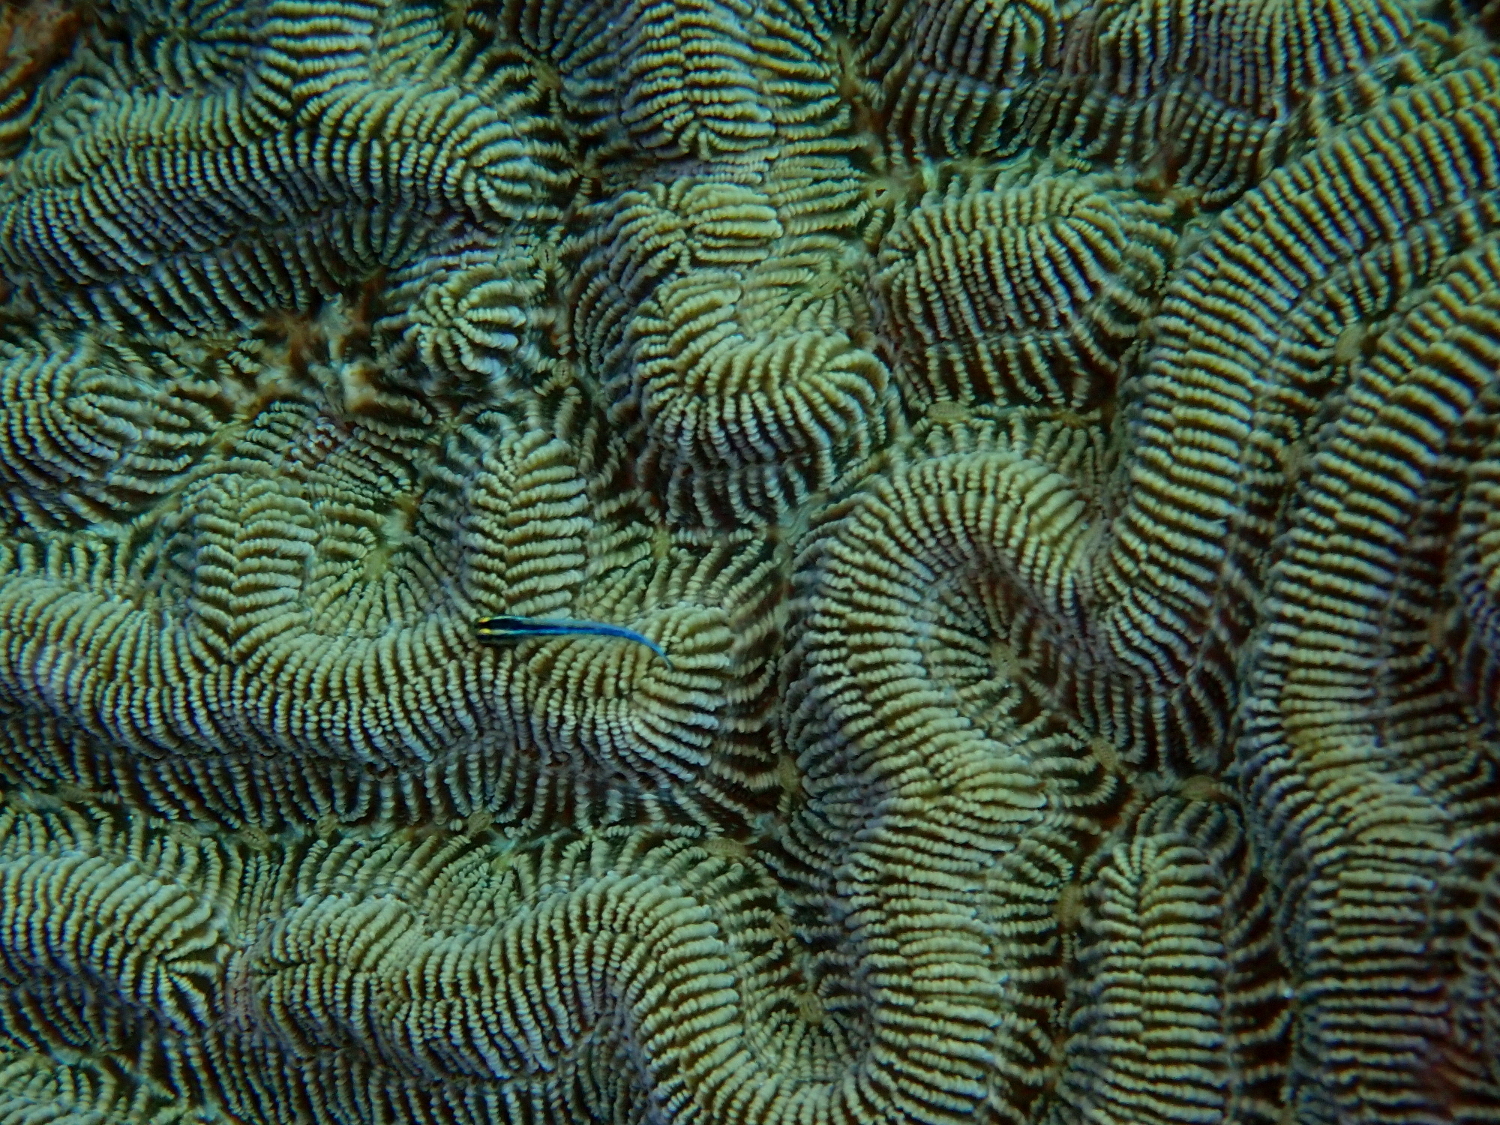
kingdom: Animalia
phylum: Cnidaria
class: Anthozoa
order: Scleractinia
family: Faviidae
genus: Colpophyllia
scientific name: Colpophyllia natans
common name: Boulder brain coral
